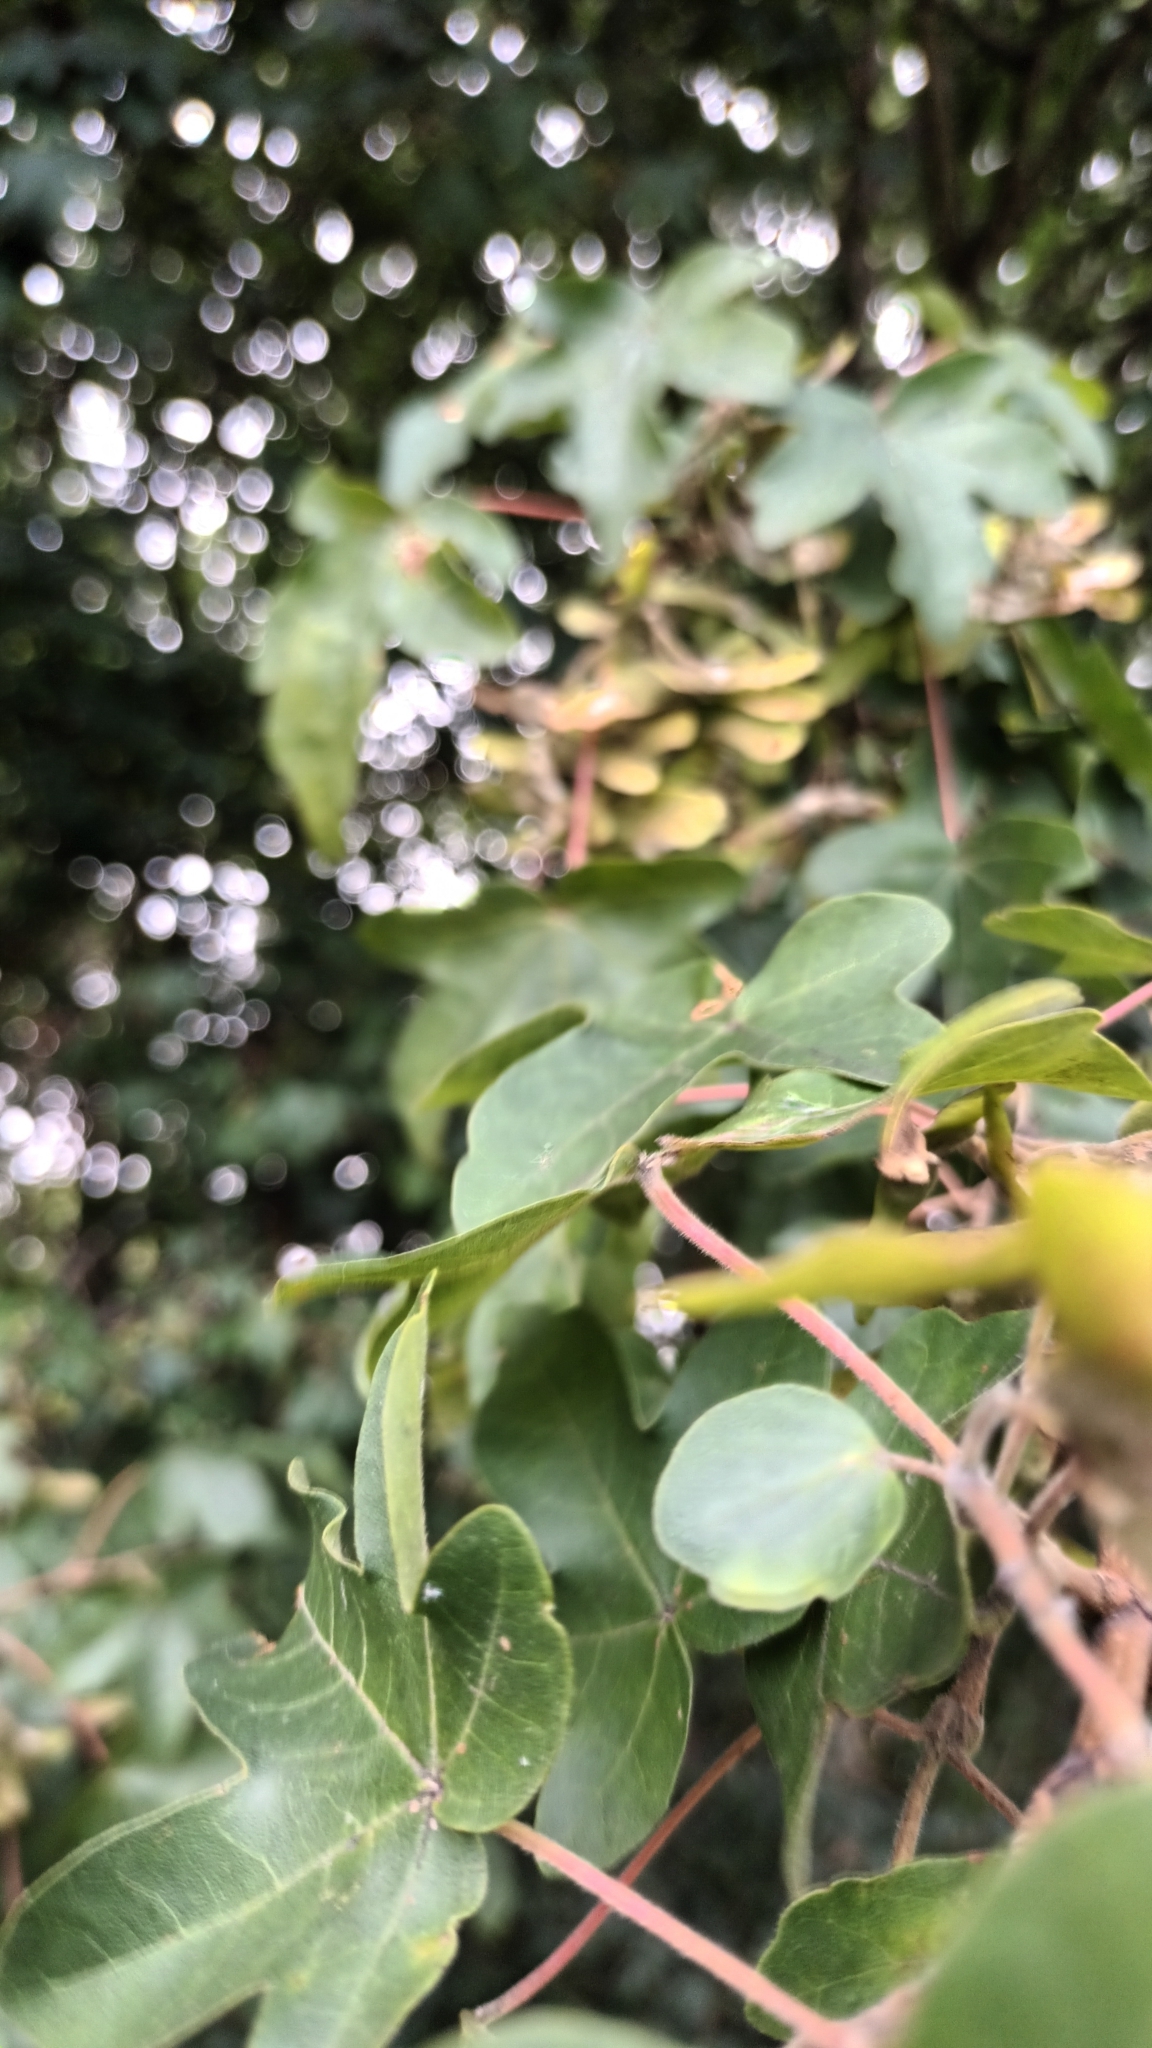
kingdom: Plantae
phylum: Tracheophyta
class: Magnoliopsida
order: Sapindales
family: Sapindaceae
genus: Acer
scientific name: Acer campestre
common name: Field maple
